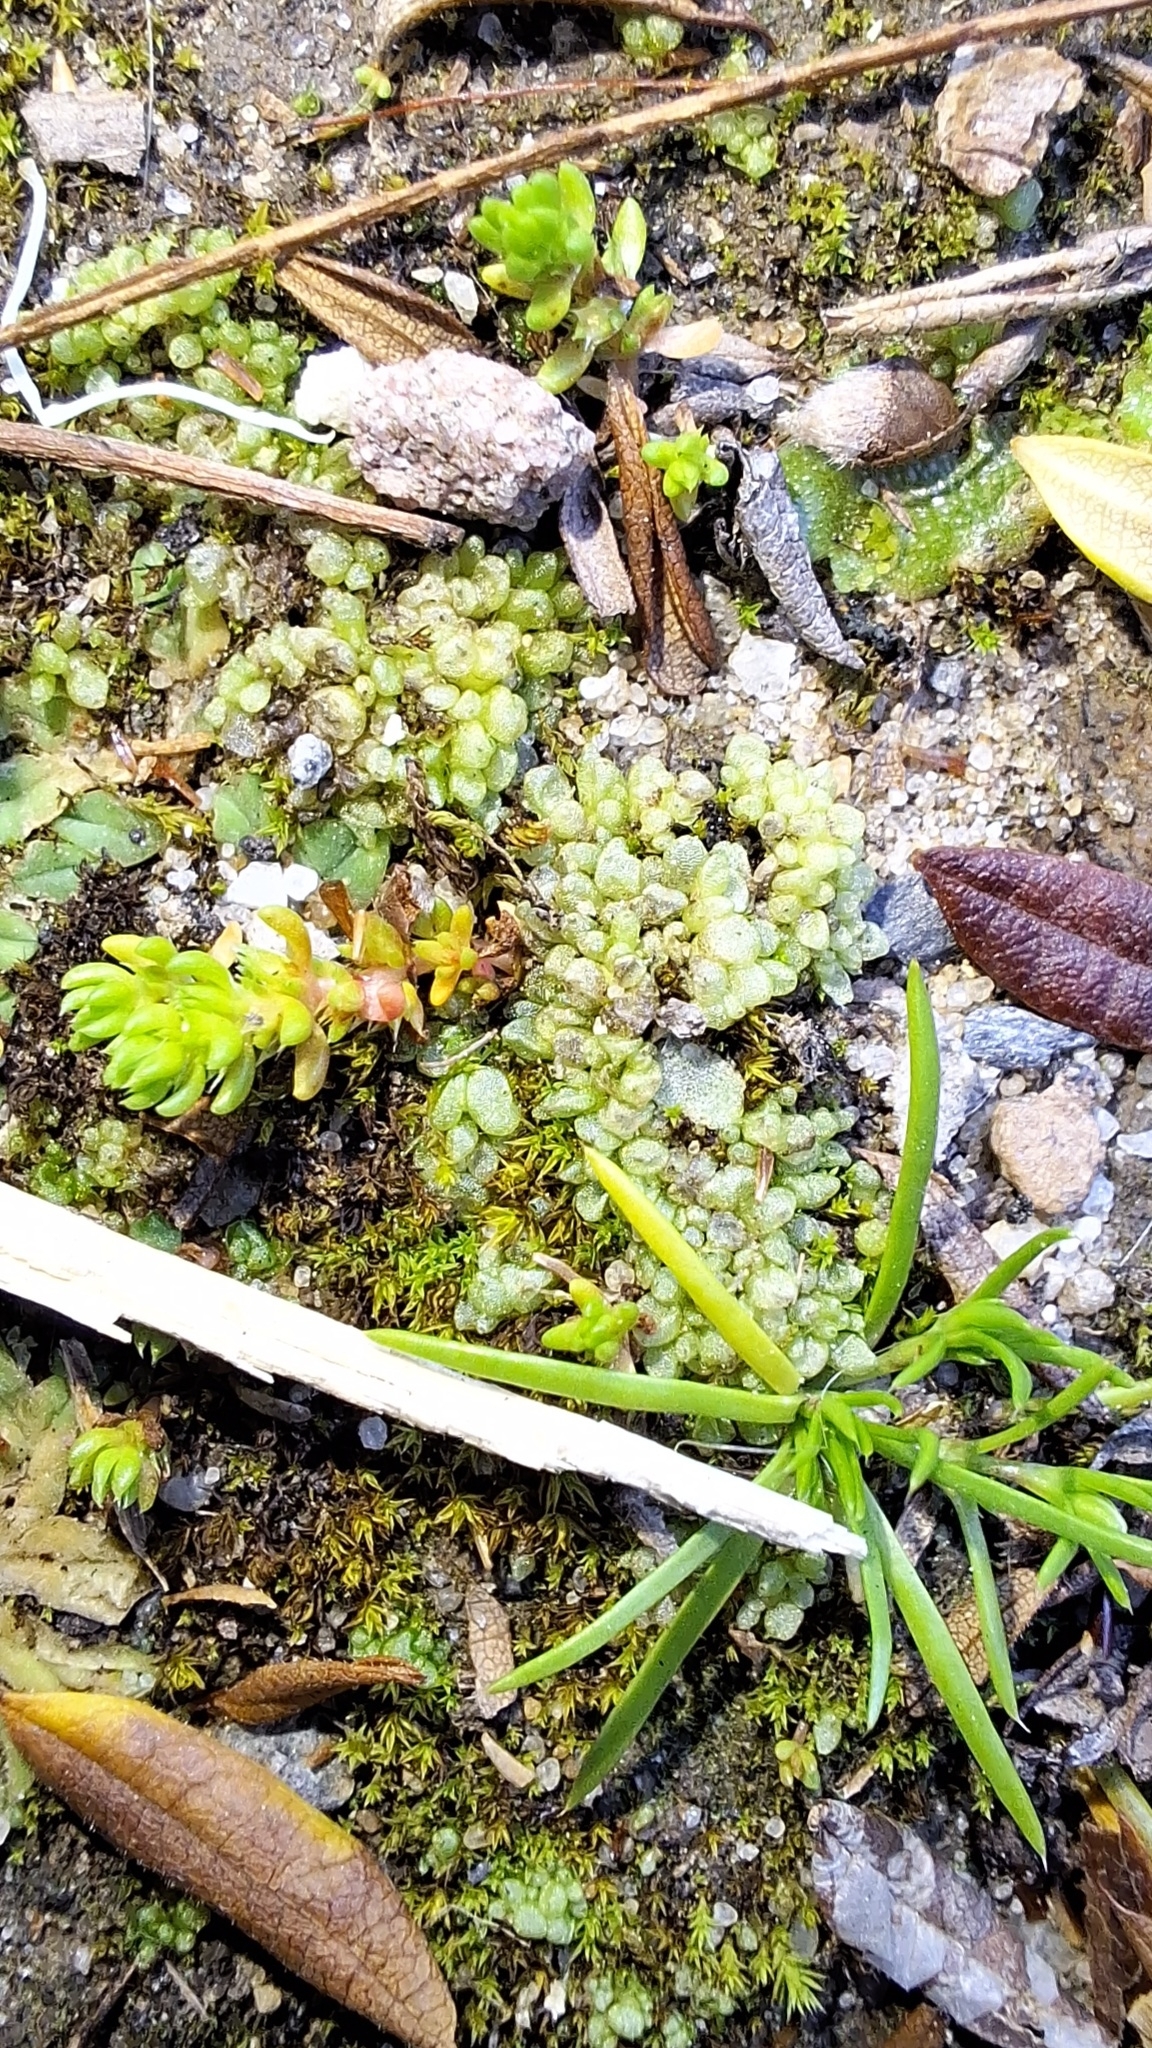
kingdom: Plantae
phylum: Marchantiophyta
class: Marchantiopsida
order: Sphaerocarpales
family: Sphaerocarpaceae
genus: Sphaerocarpos
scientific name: Sphaerocarpos texanus
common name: Texas balloonwort
